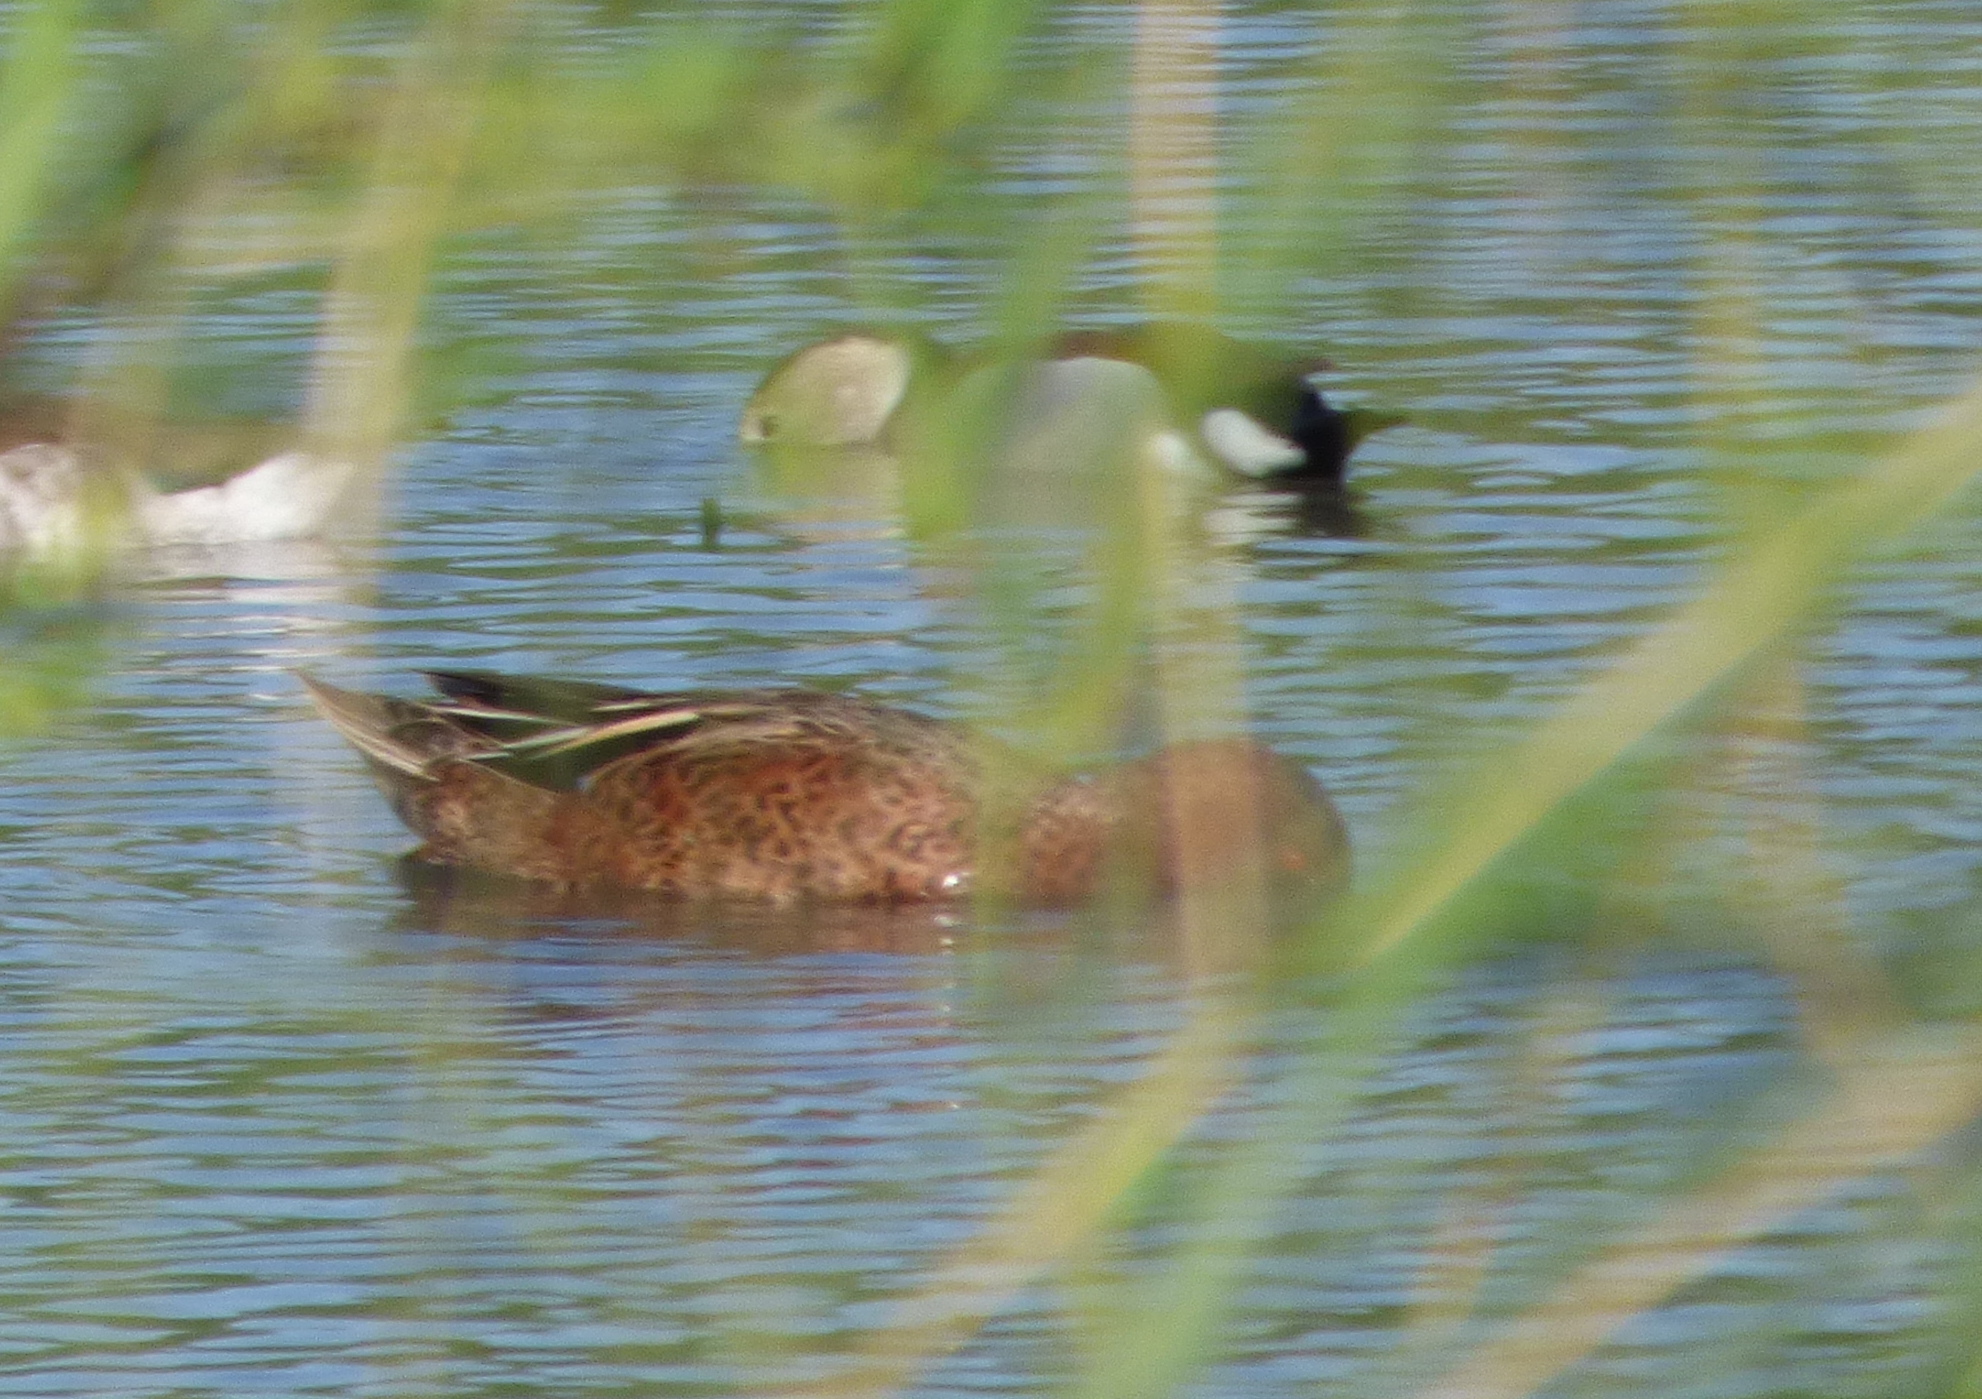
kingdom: Animalia
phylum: Chordata
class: Aves
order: Anseriformes
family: Anatidae
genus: Spatula
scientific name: Spatula cyanoptera
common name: Cinnamon teal
